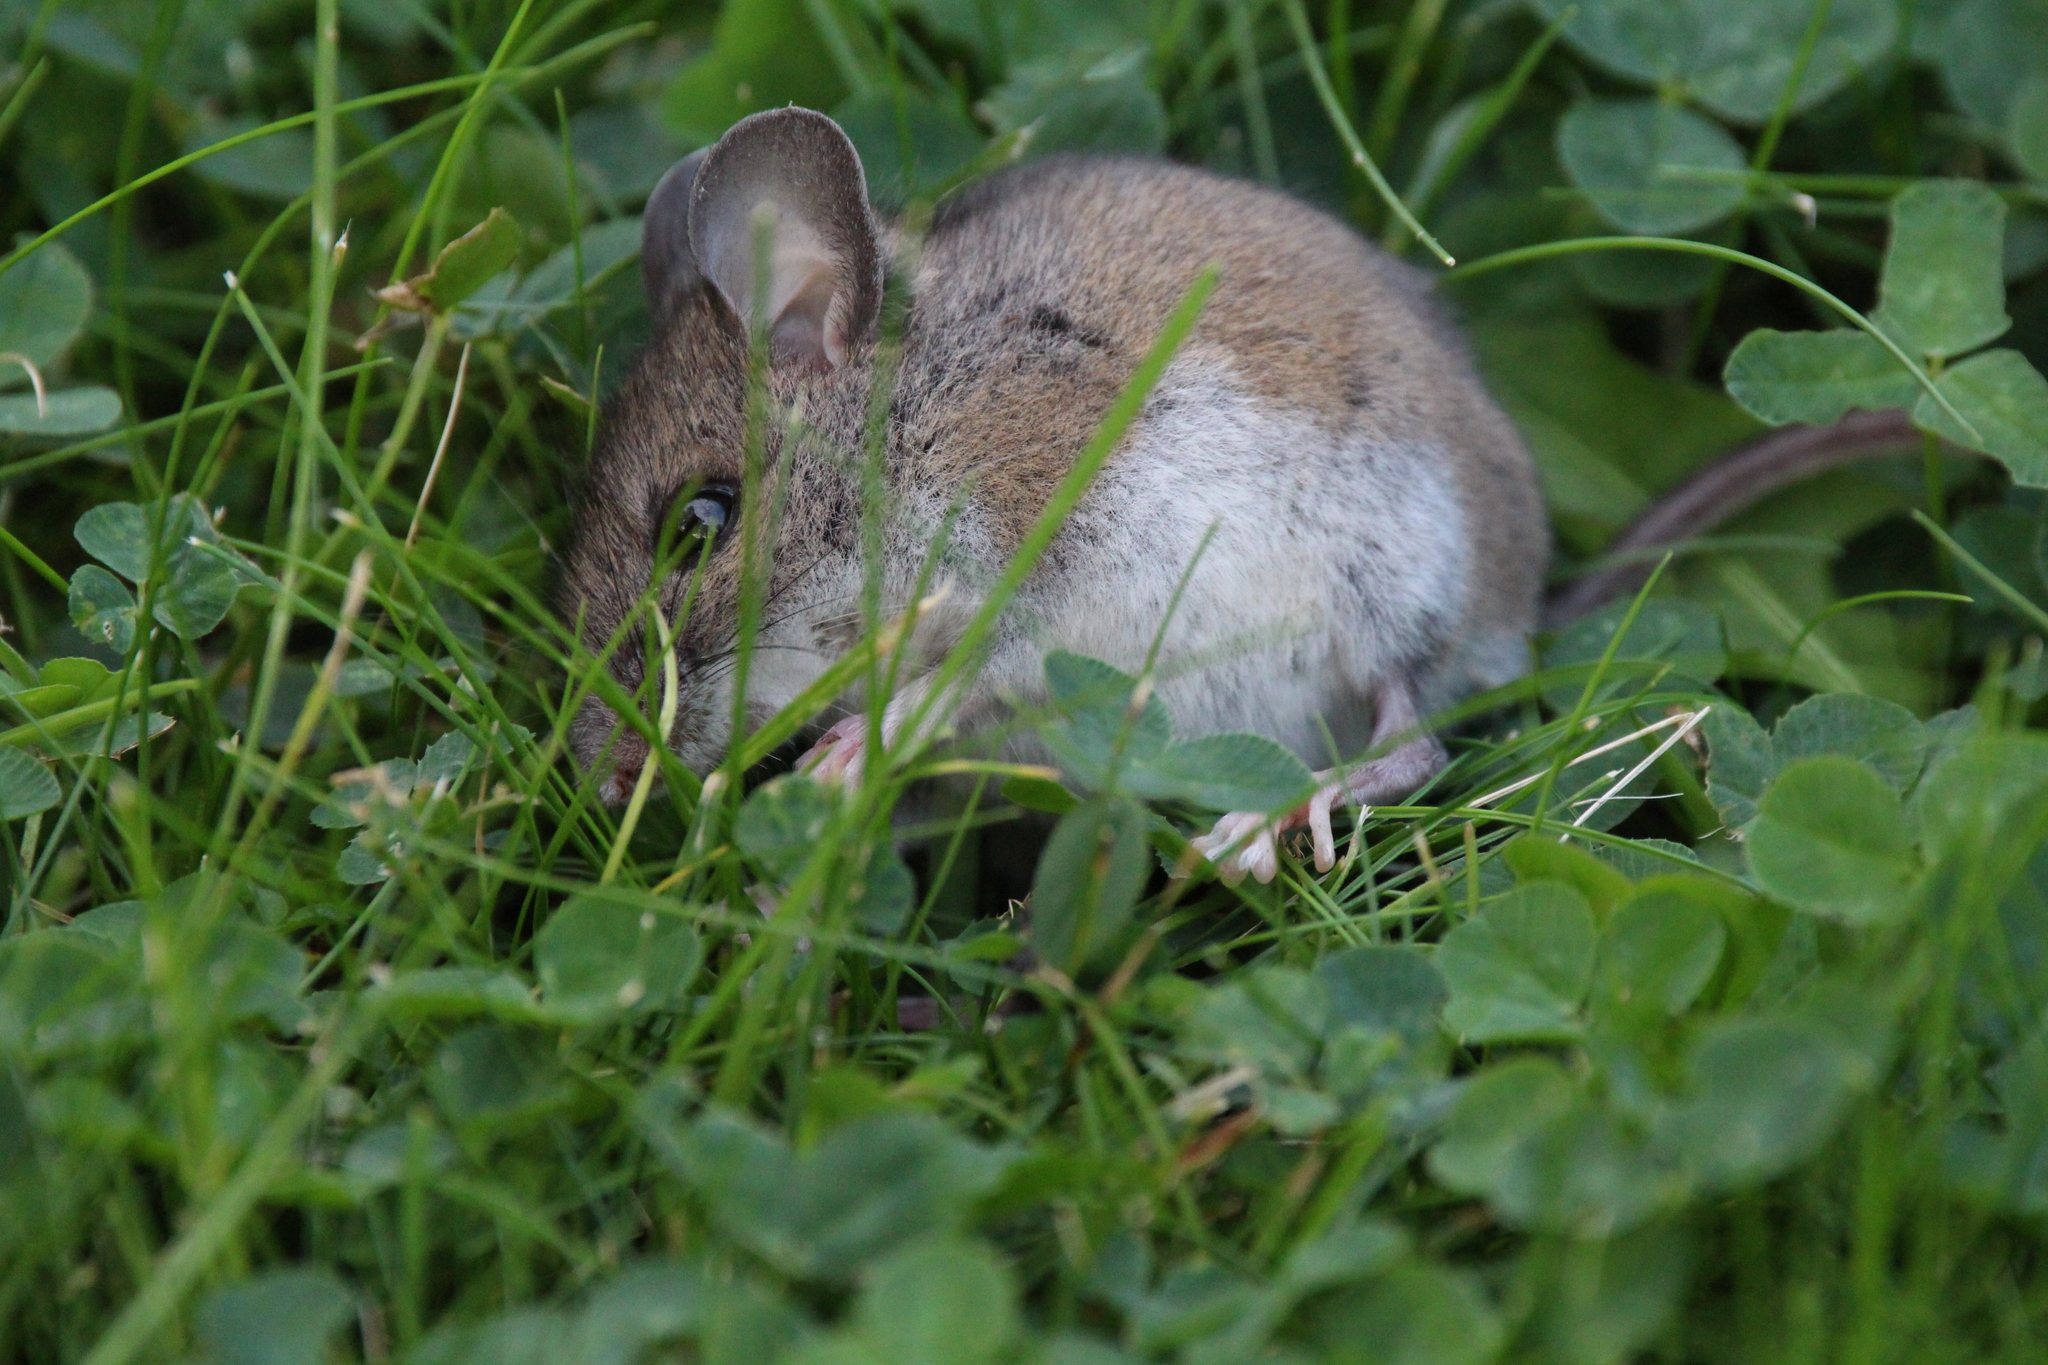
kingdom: Animalia
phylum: Chordata
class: Mammalia
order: Rodentia
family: Cricetidae
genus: Peromyscus
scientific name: Peromyscus maniculatus
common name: Deer mouse
